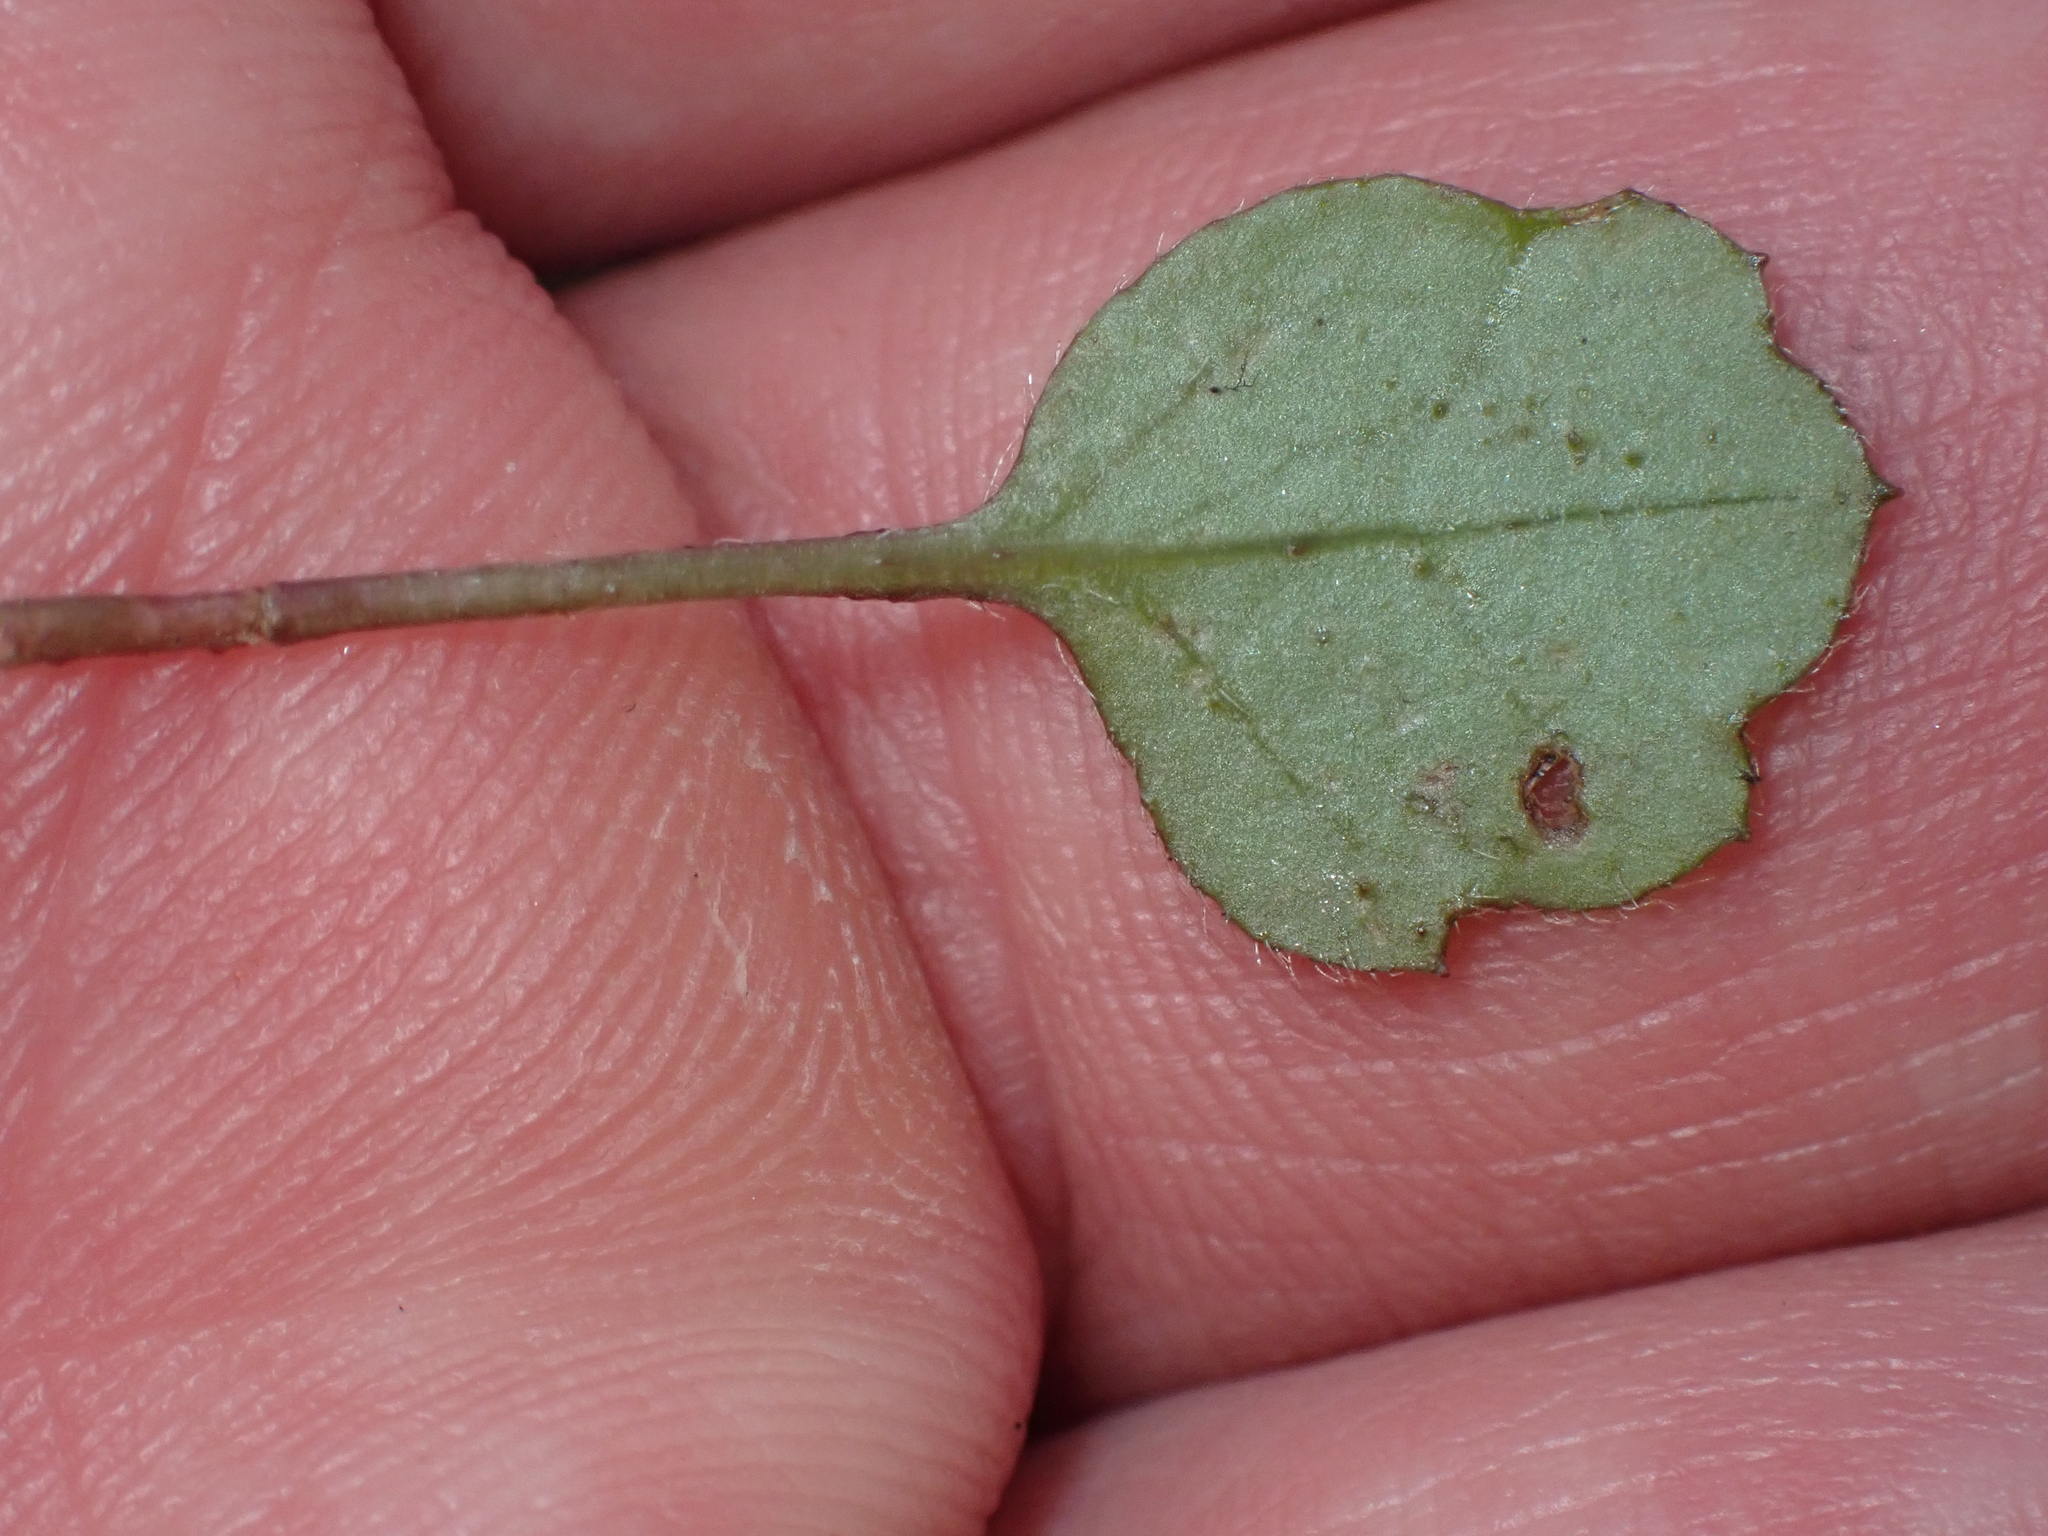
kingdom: Plantae
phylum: Tracheophyta
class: Magnoliopsida
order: Asterales
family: Asteraceae
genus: Lagenophora
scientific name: Lagenophora strangulata
